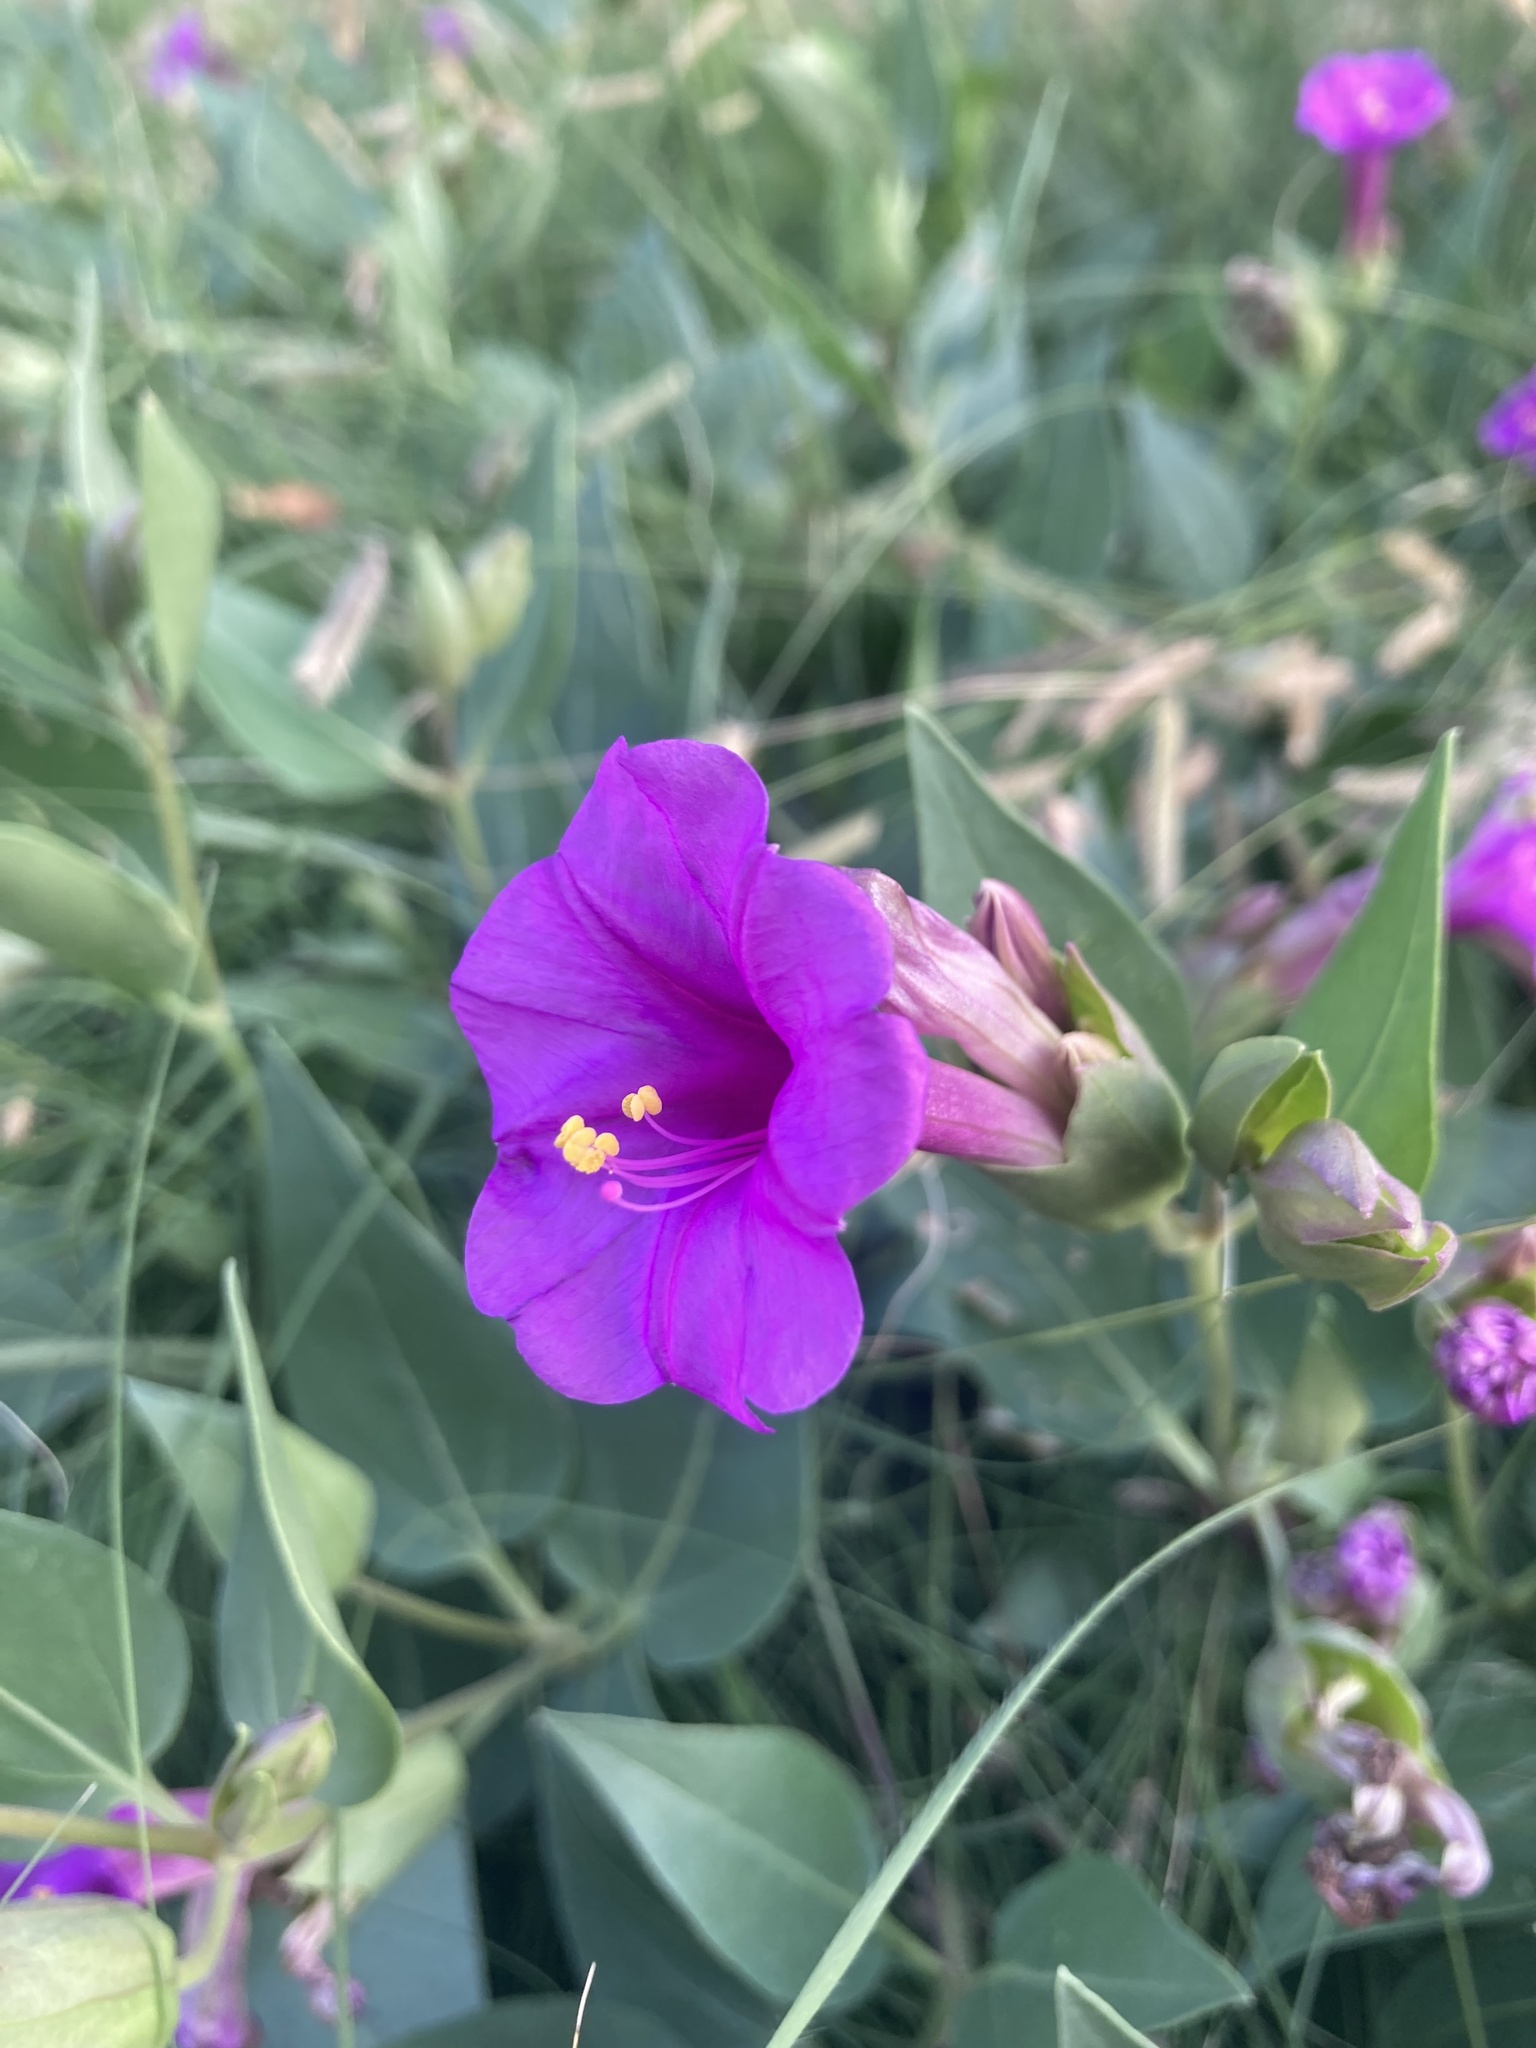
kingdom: Plantae
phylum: Tracheophyta
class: Magnoliopsida
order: Caryophyllales
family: Nyctaginaceae
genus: Mirabilis
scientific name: Mirabilis multiflora
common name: Froebel's four-o'clock
